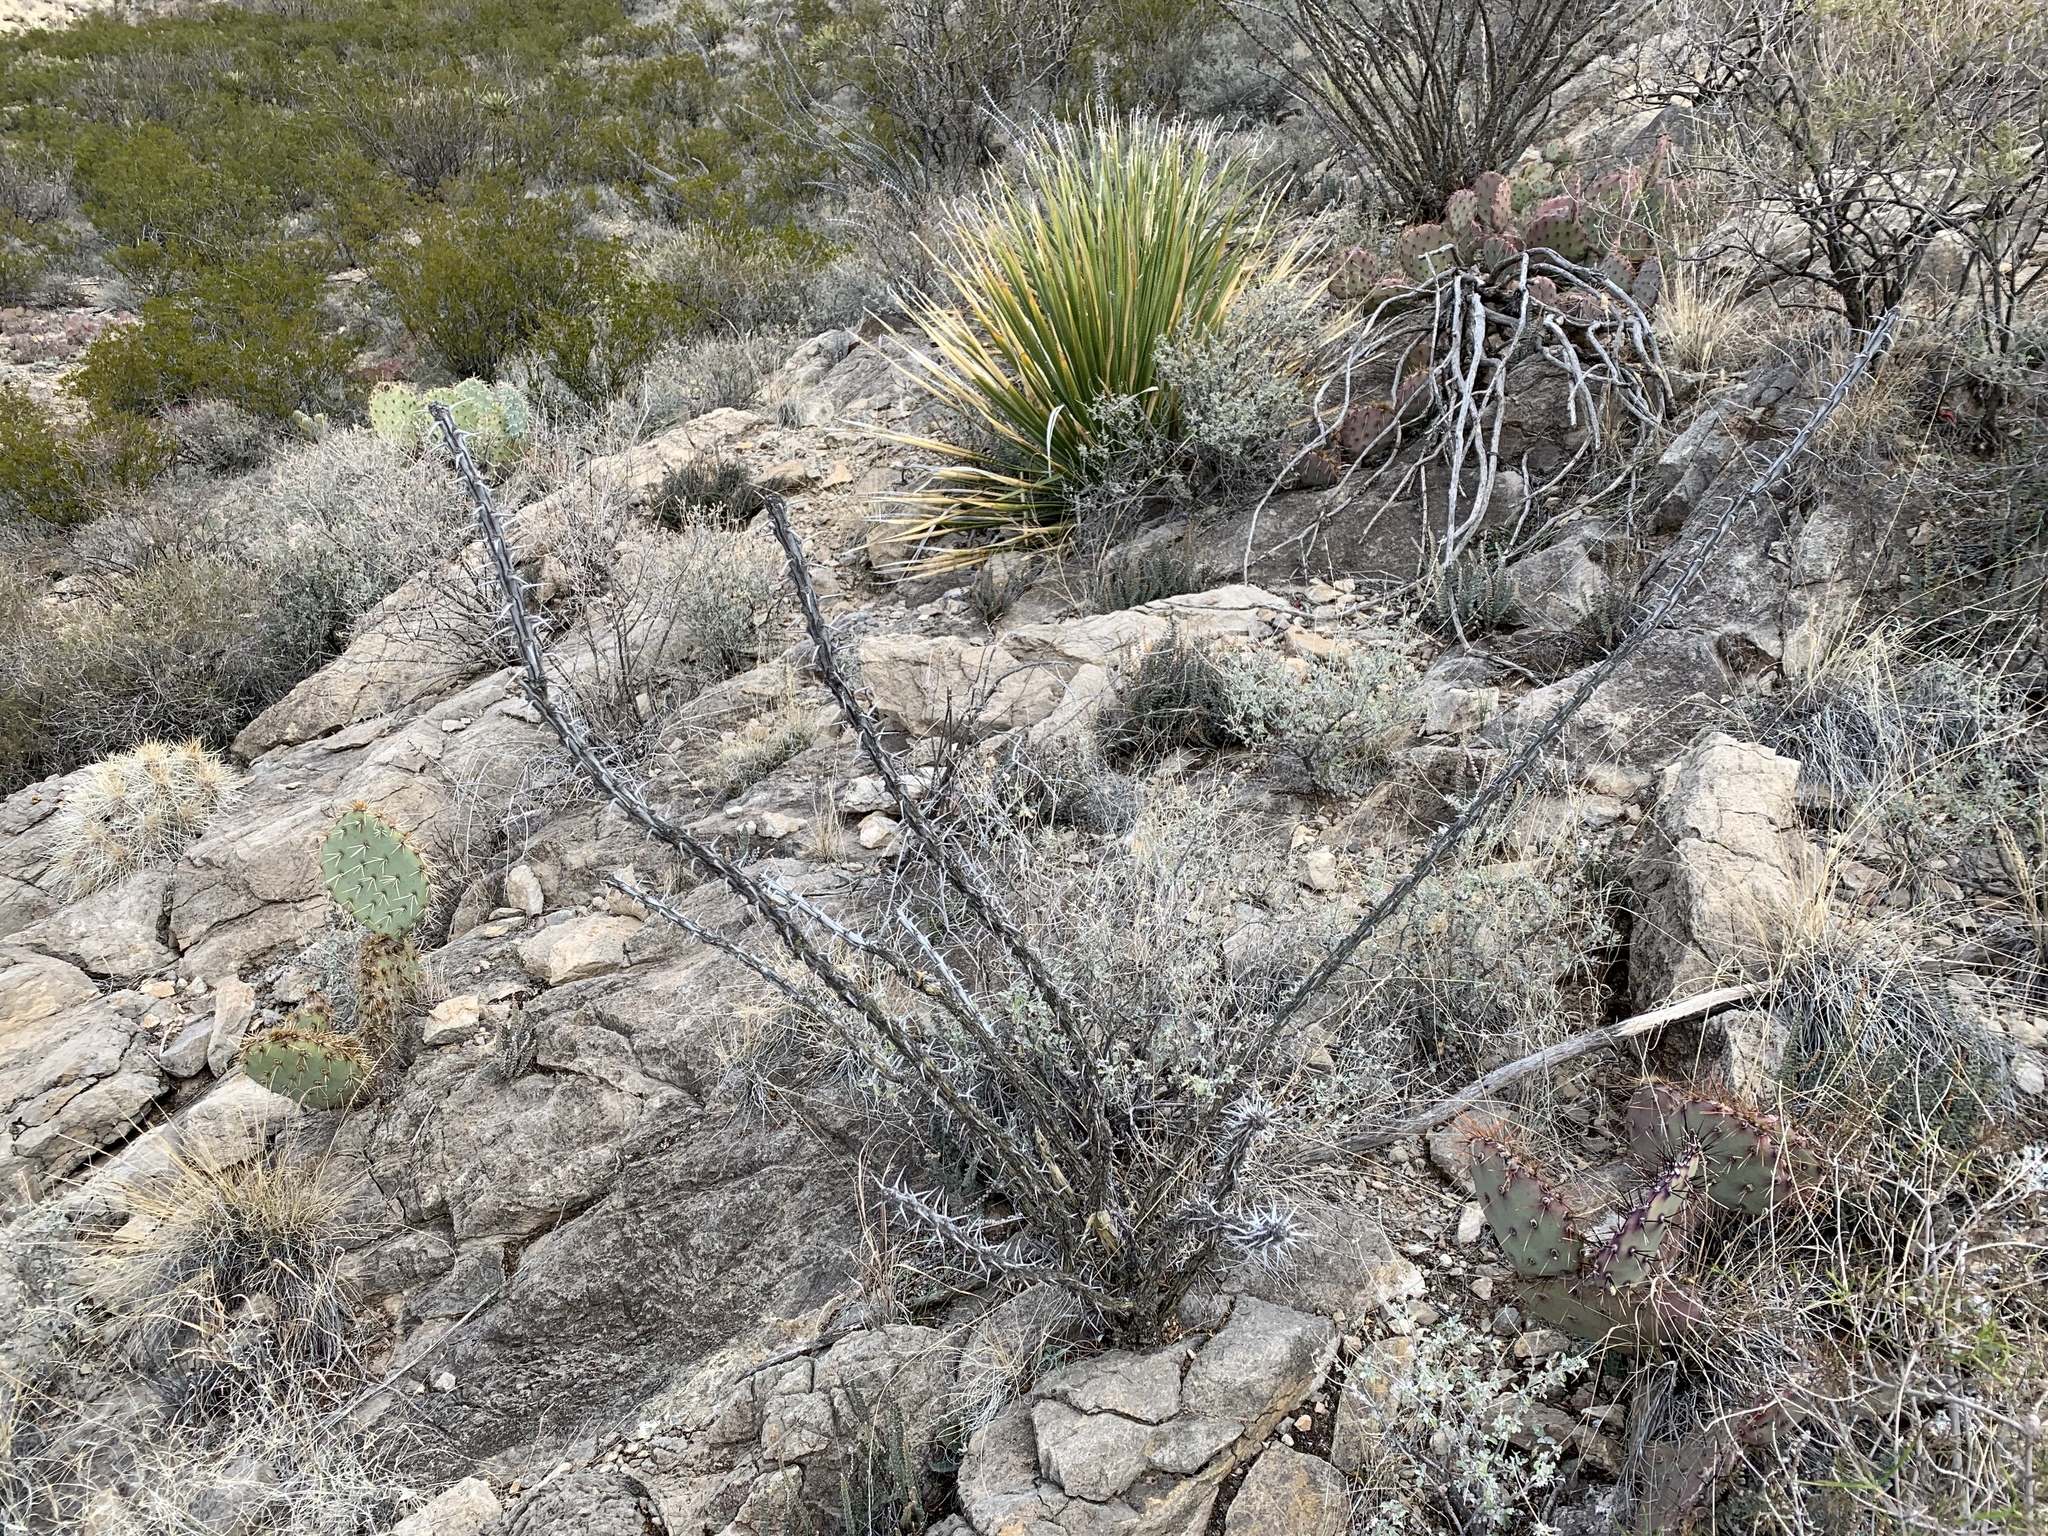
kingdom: Plantae
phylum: Tracheophyta
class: Magnoliopsida
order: Ericales
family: Fouquieriaceae
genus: Fouquieria
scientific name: Fouquieria splendens
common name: Vine-cactus
